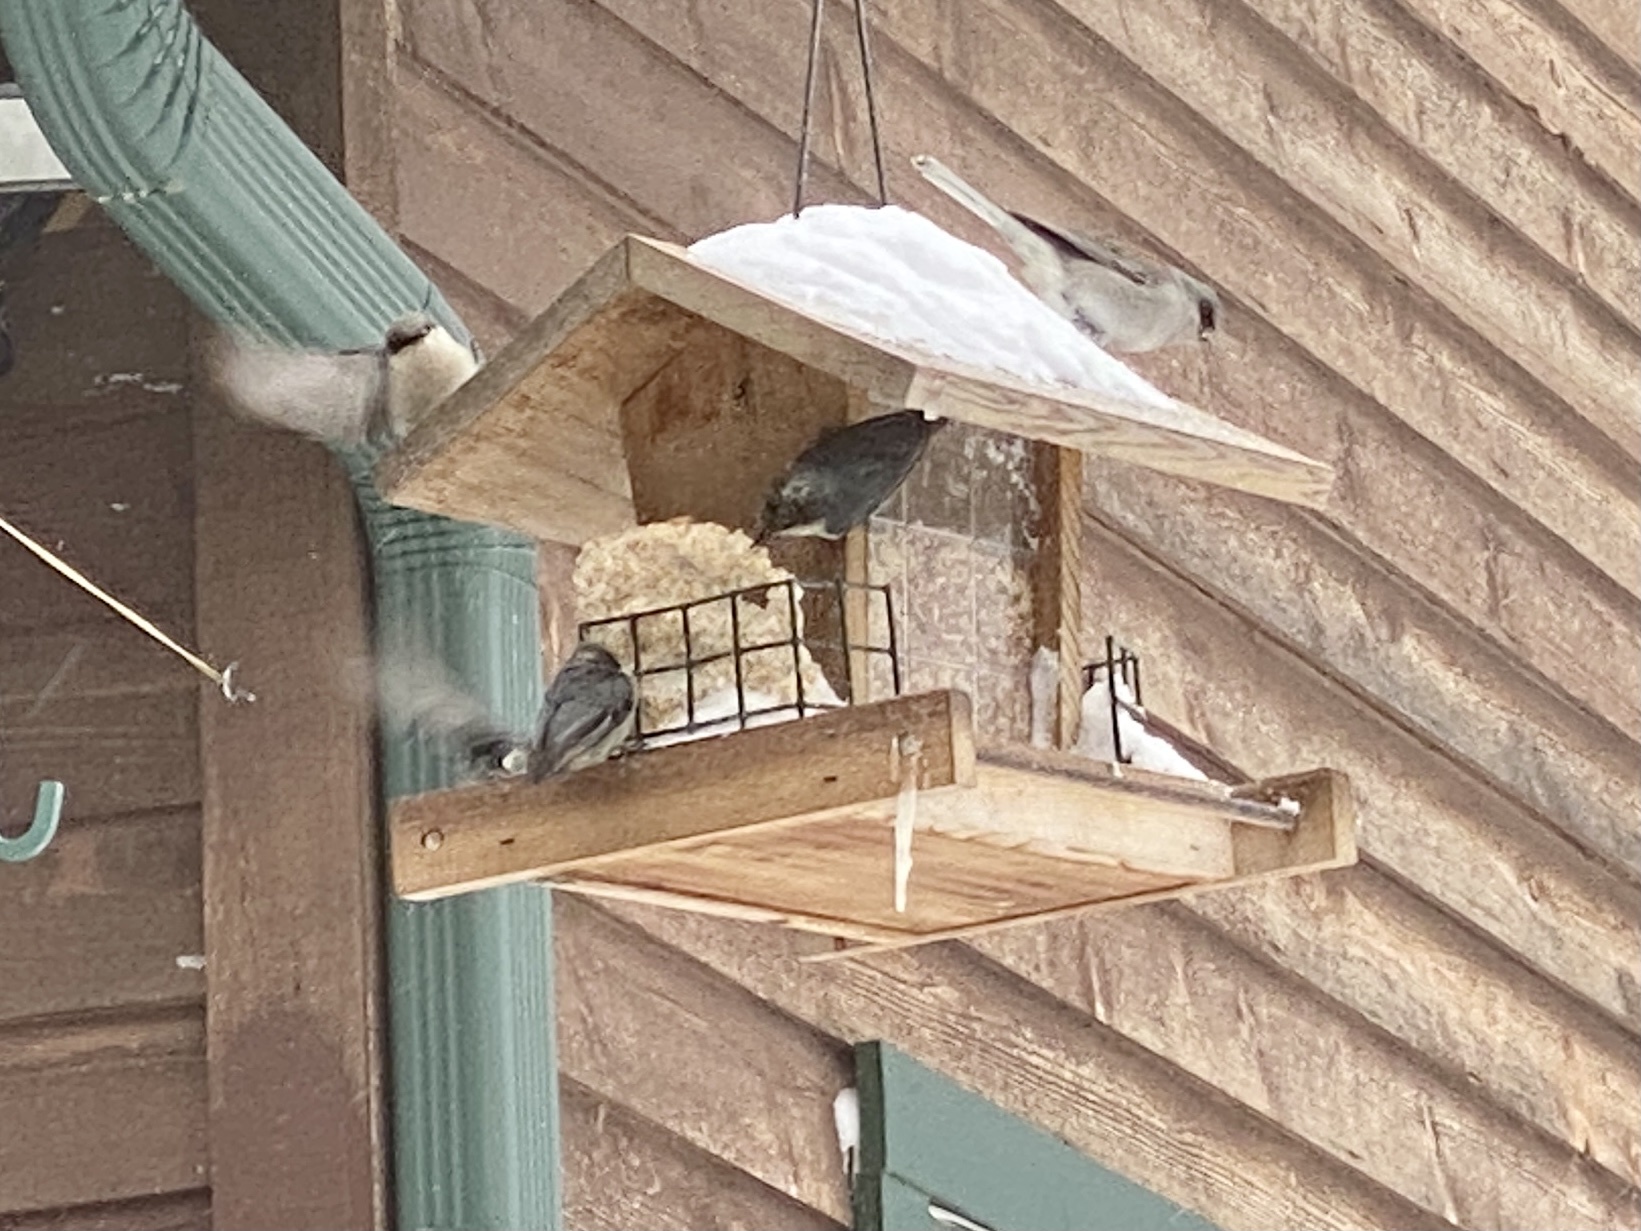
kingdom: Animalia
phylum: Chordata
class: Aves
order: Passeriformes
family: Sittidae
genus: Sitta
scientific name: Sitta pygmaea
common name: Pygmy nuthatch
